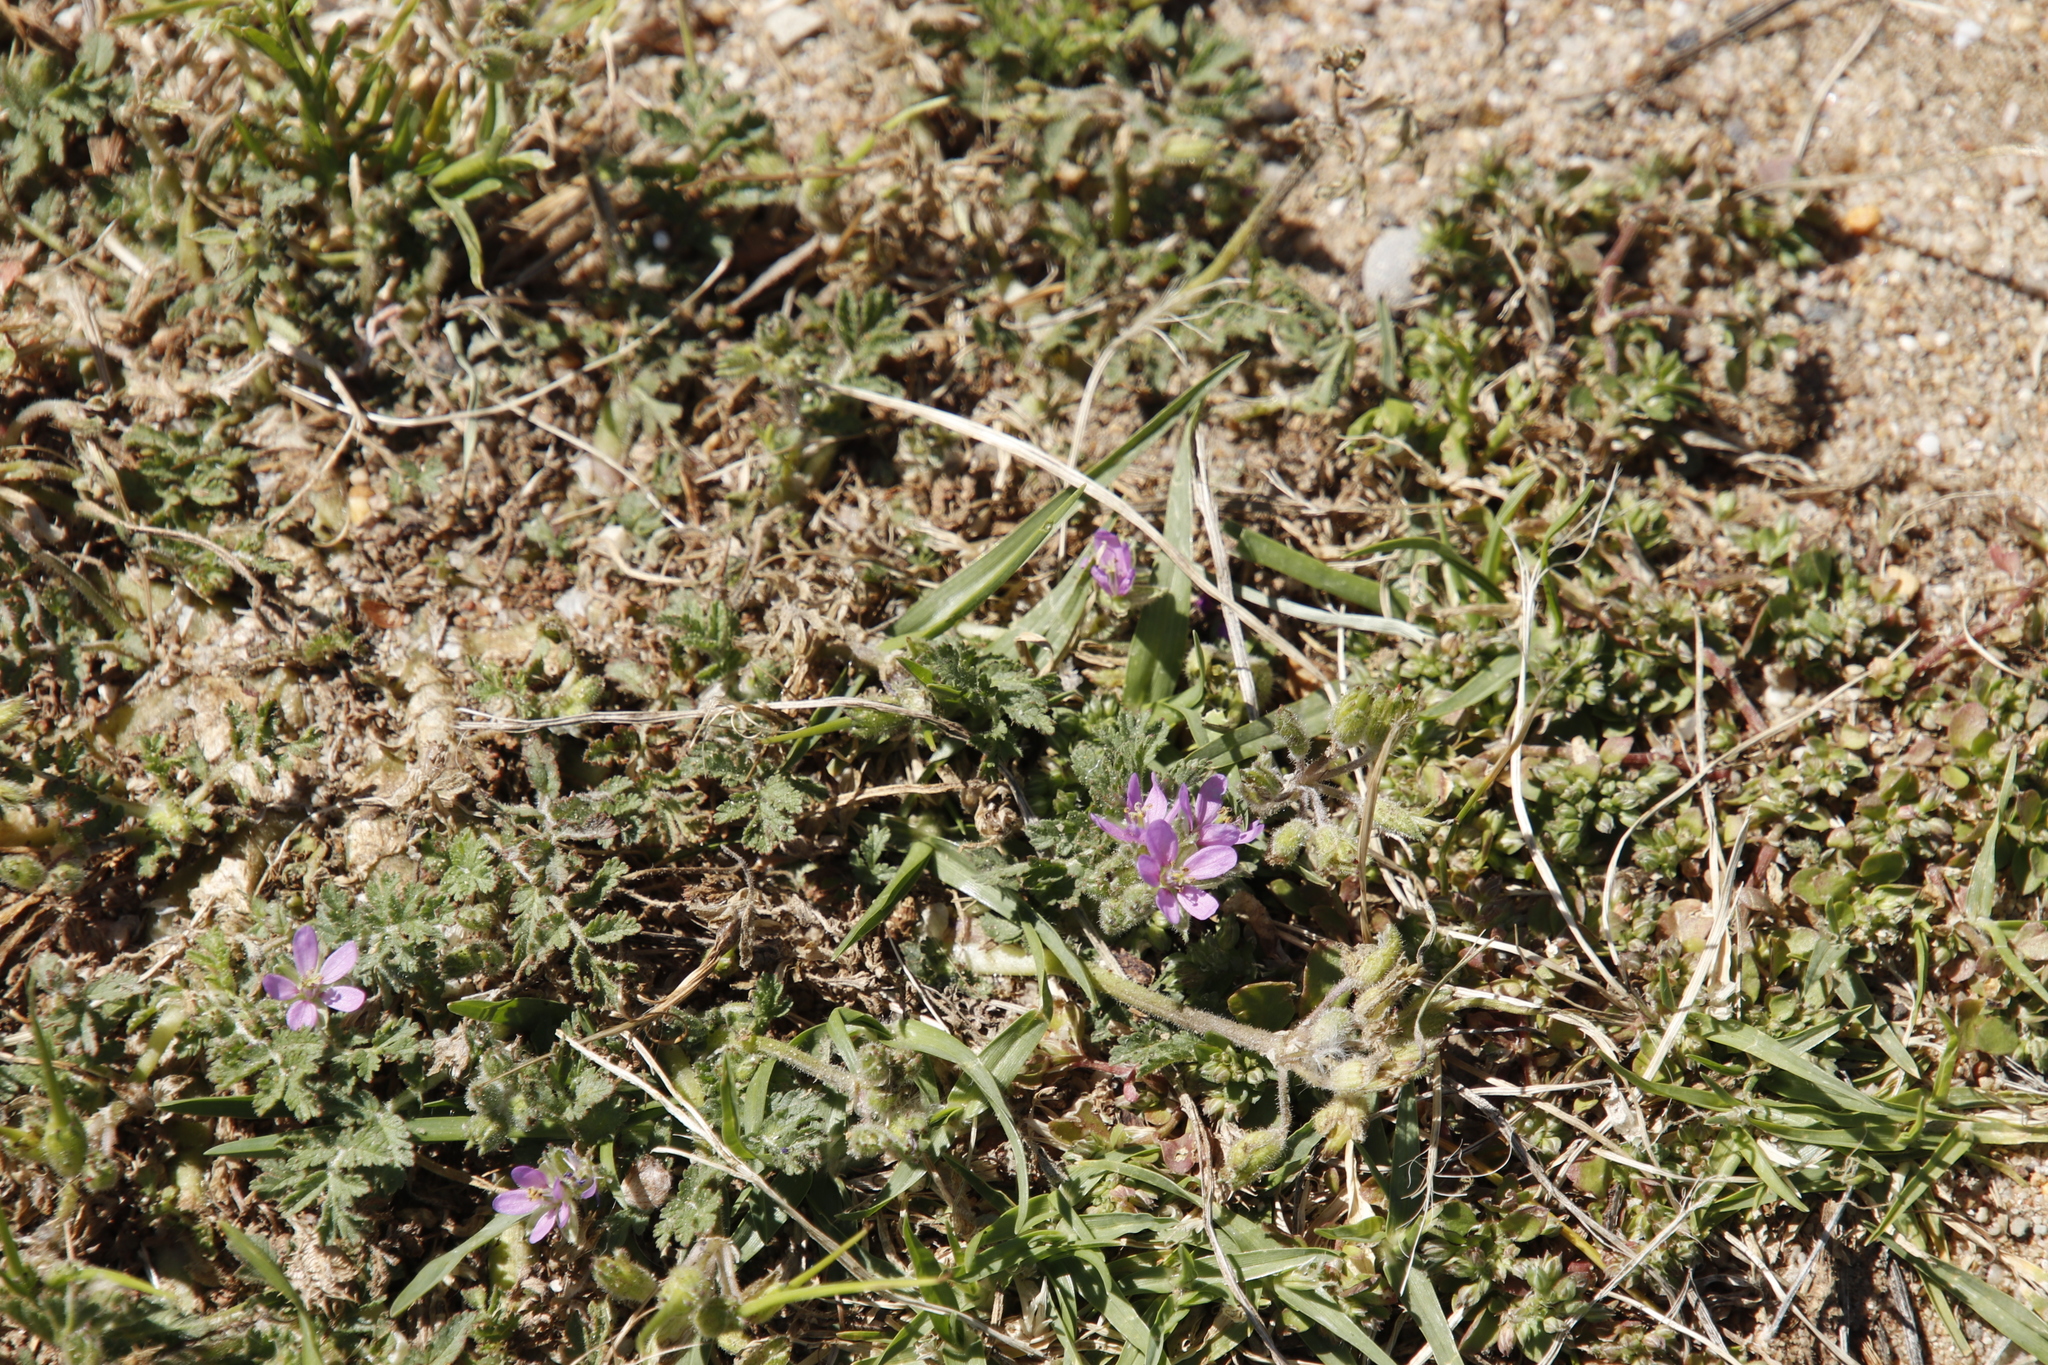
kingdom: Plantae
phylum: Tracheophyta
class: Magnoliopsida
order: Geraniales
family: Geraniaceae
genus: Erodium
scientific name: Erodium moschatum
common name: Musk stork's-bill
